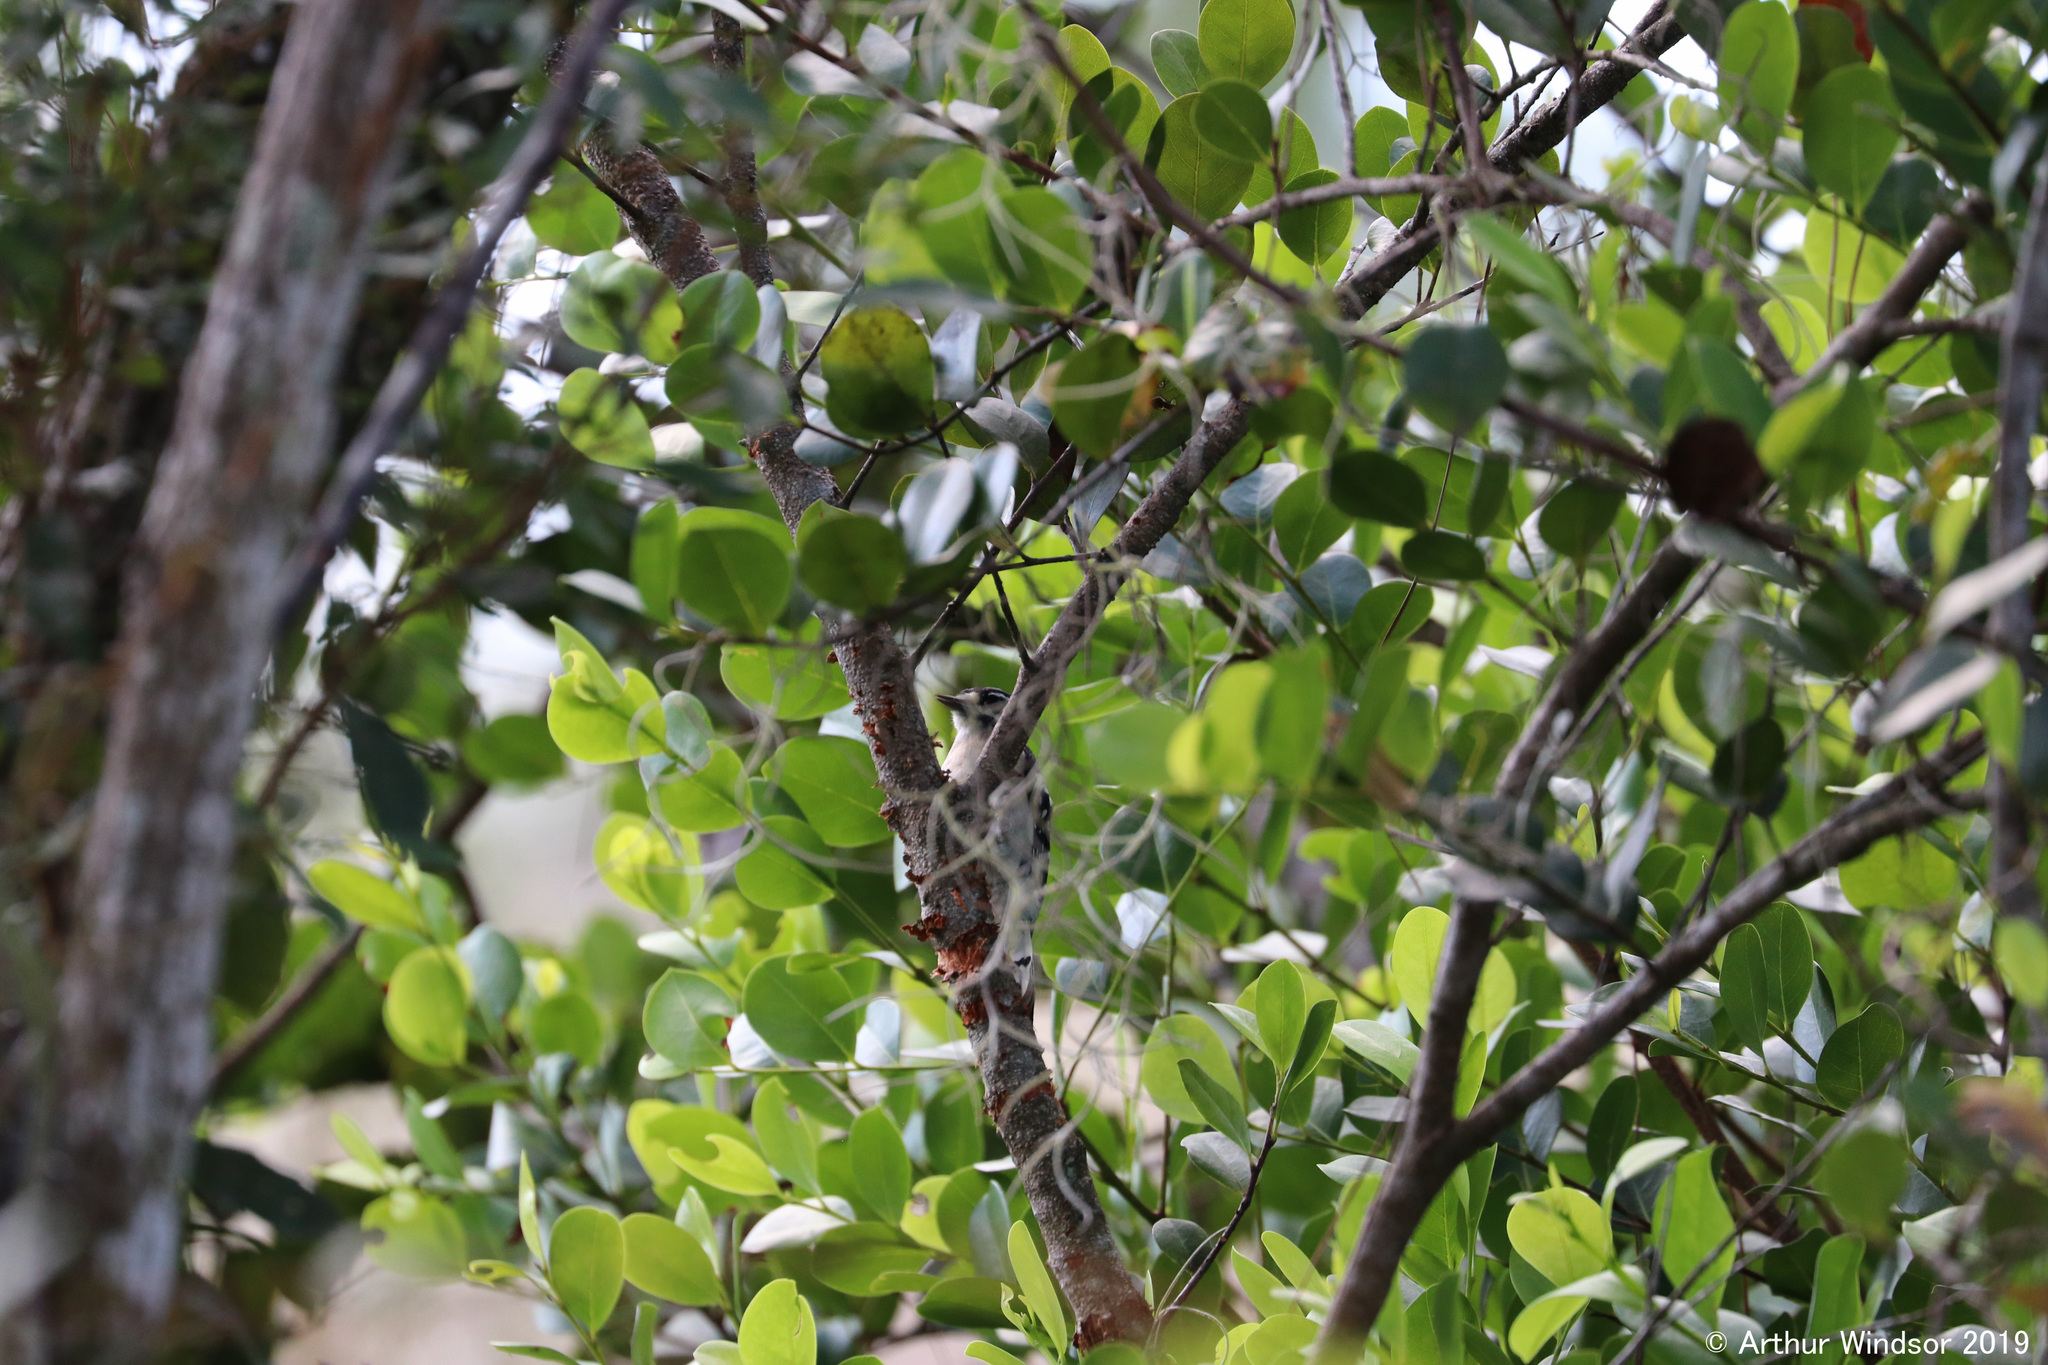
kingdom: Animalia
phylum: Chordata
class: Aves
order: Piciformes
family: Picidae
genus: Dryobates
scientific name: Dryobates pubescens
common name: Downy woodpecker
